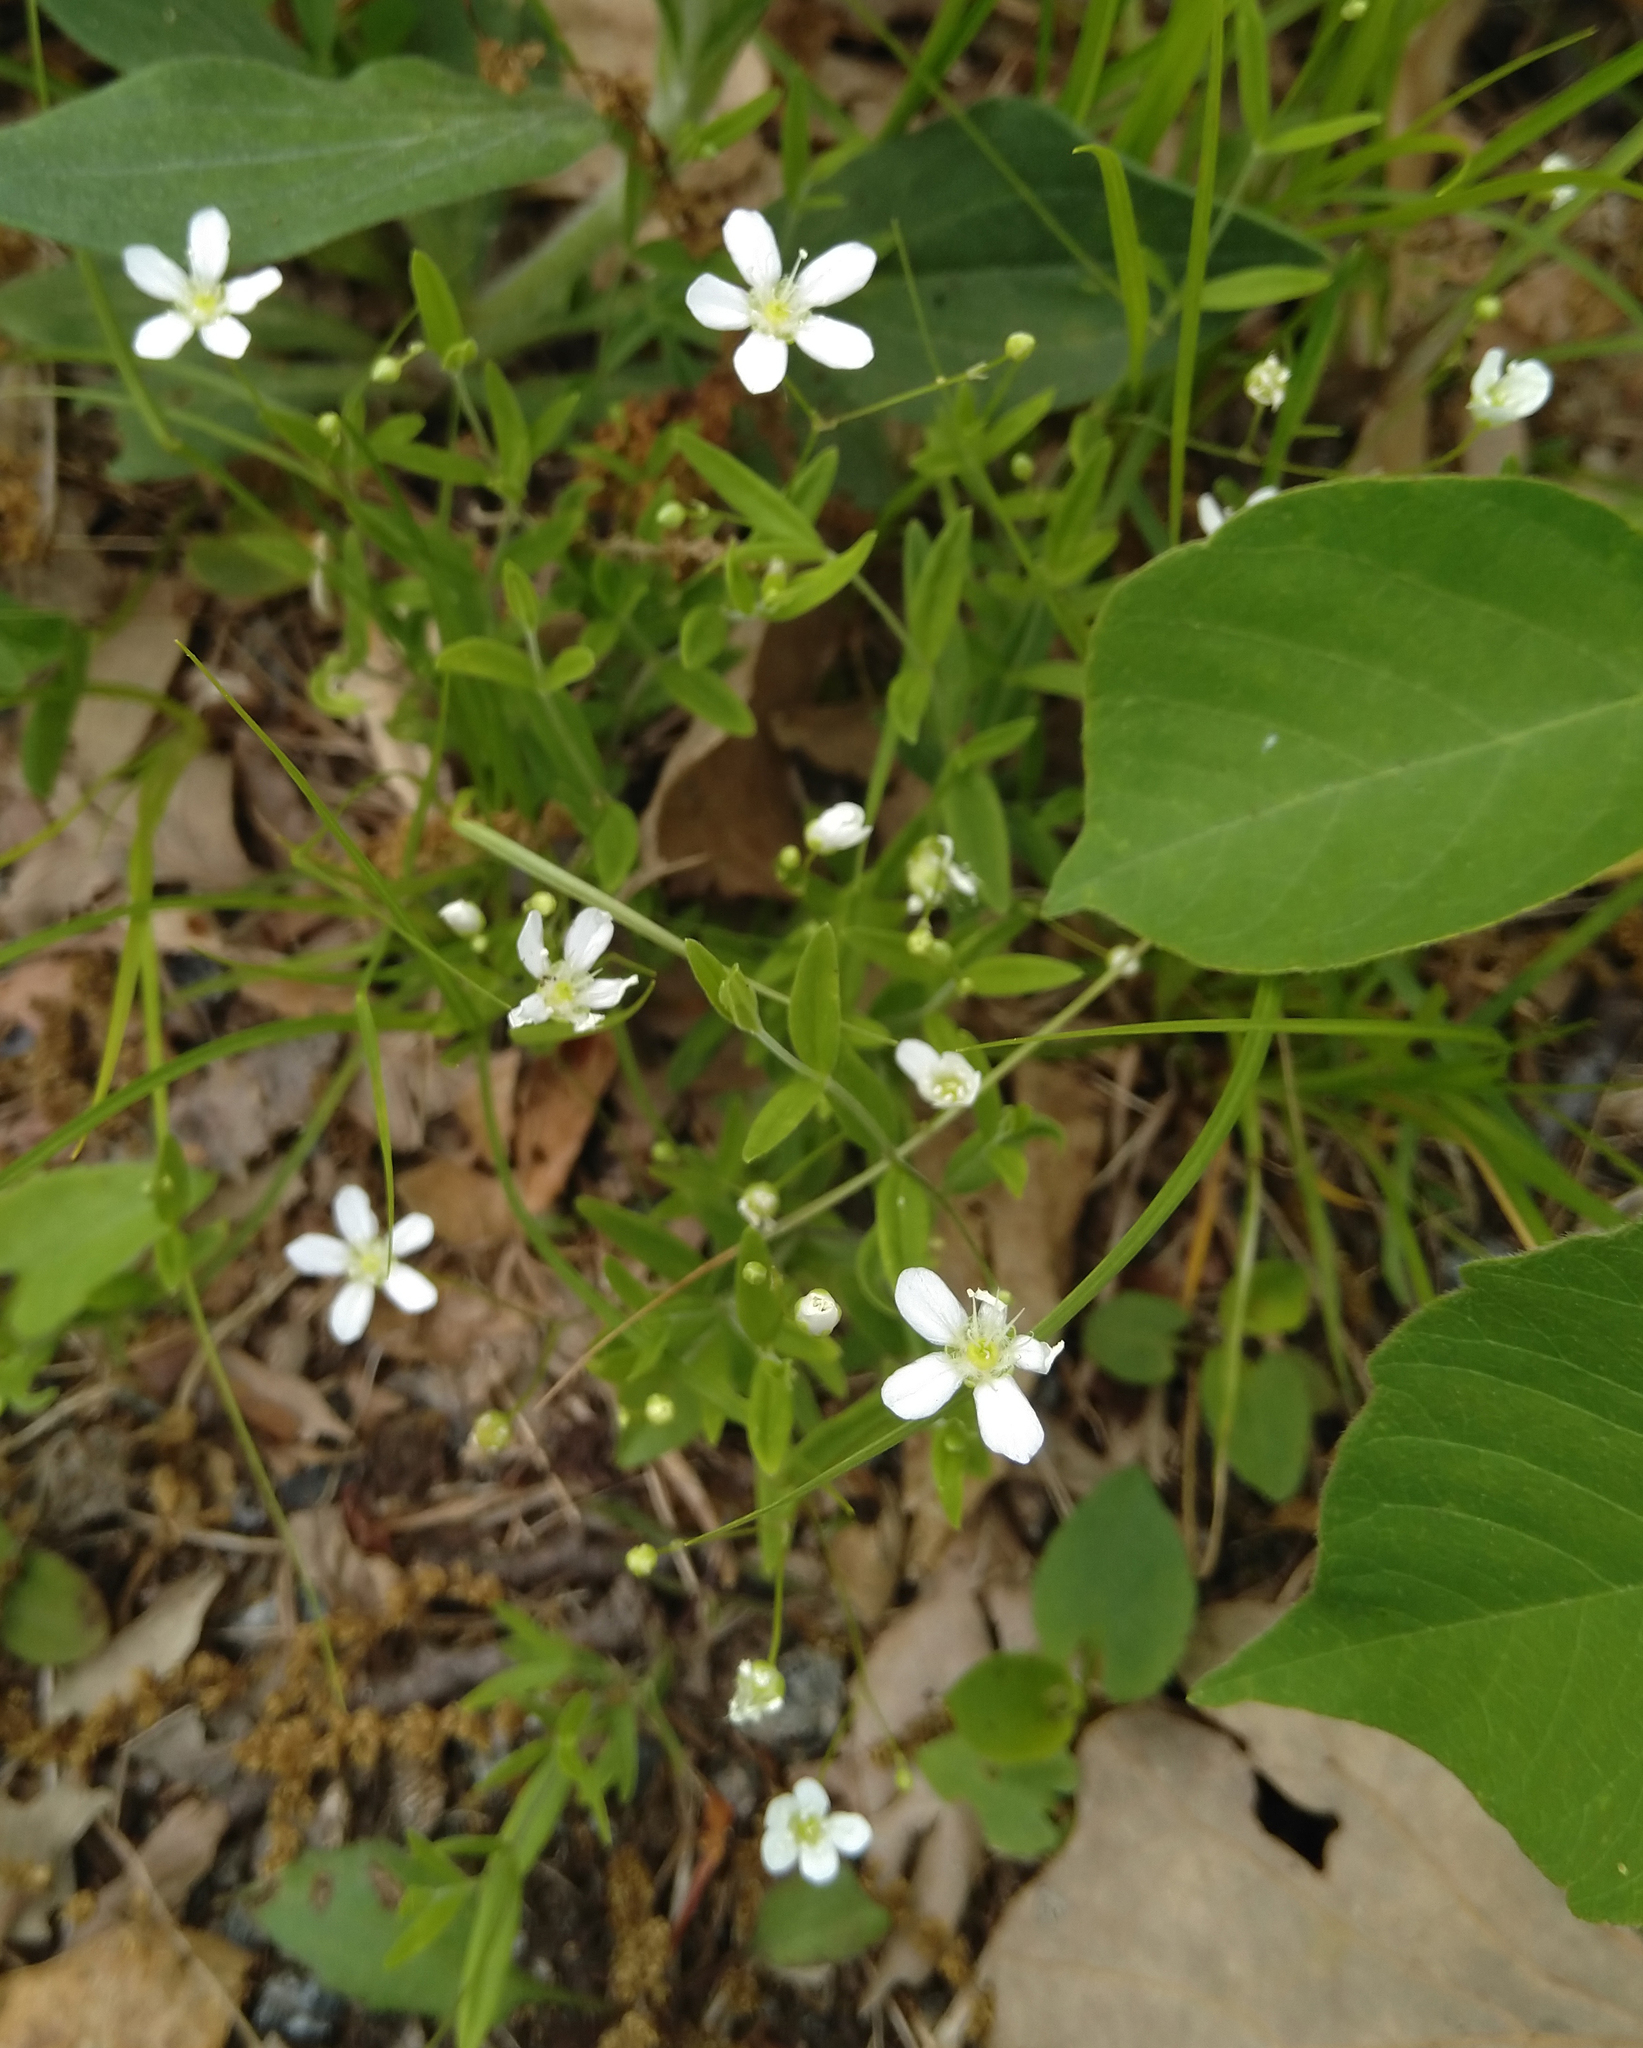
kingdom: Plantae
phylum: Tracheophyta
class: Magnoliopsida
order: Caryophyllales
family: Caryophyllaceae
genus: Moehringia
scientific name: Moehringia lateriflora
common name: Blunt-leaved sandwort
